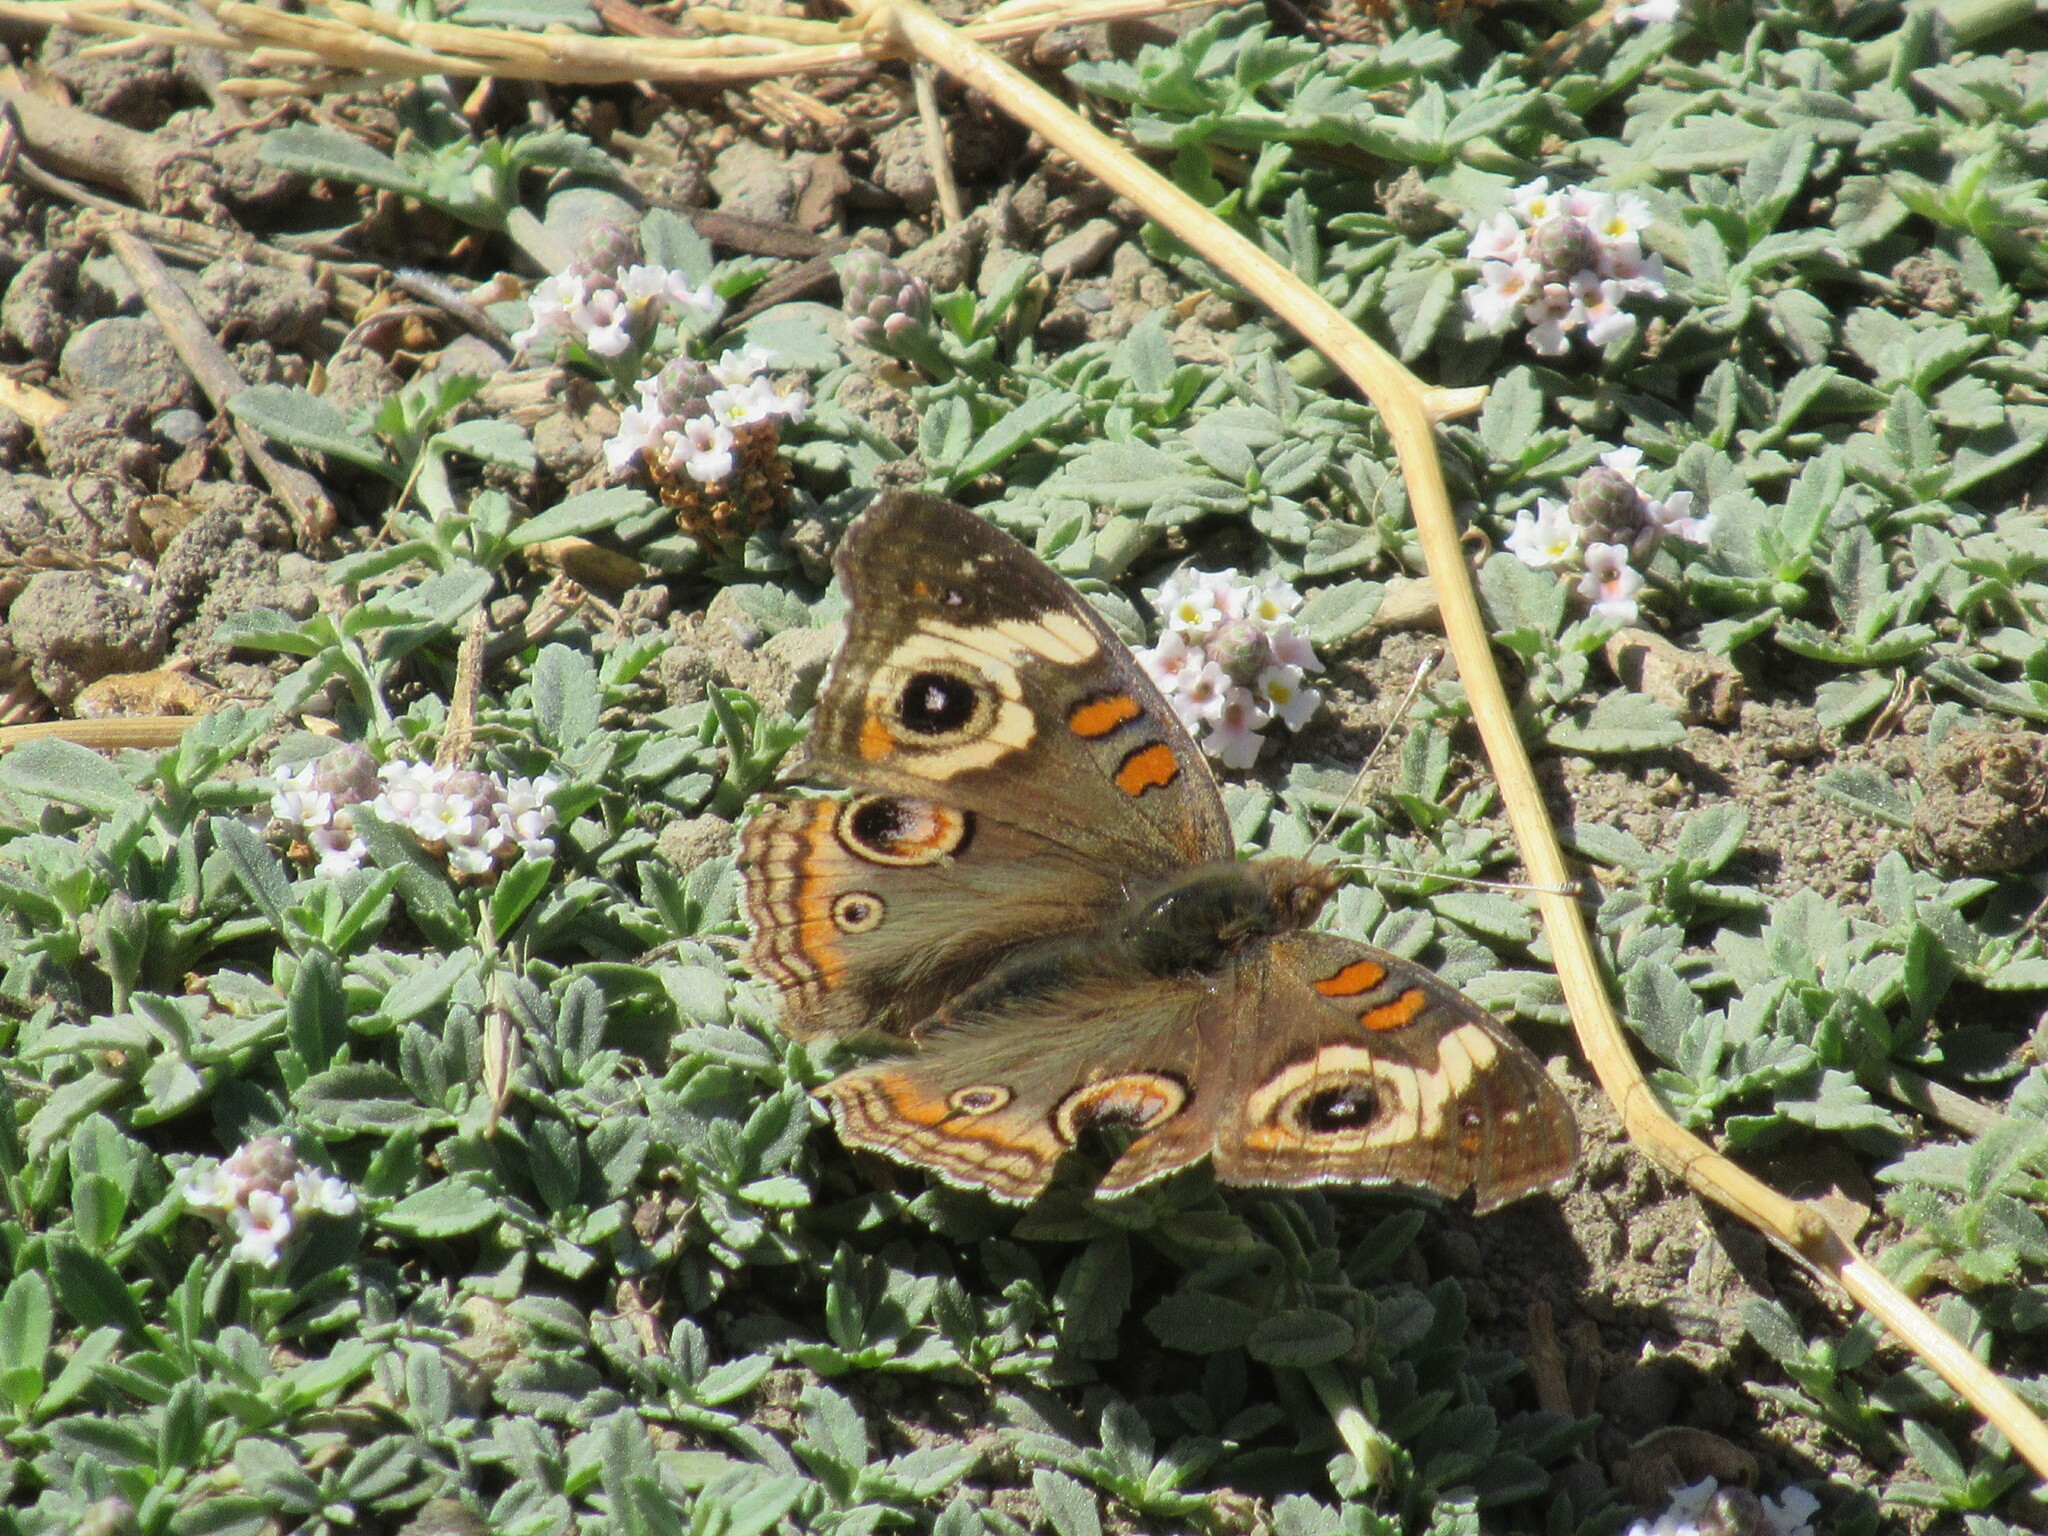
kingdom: Animalia
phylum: Arthropoda
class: Insecta
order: Lepidoptera
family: Nymphalidae
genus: Junonia
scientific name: Junonia grisea
